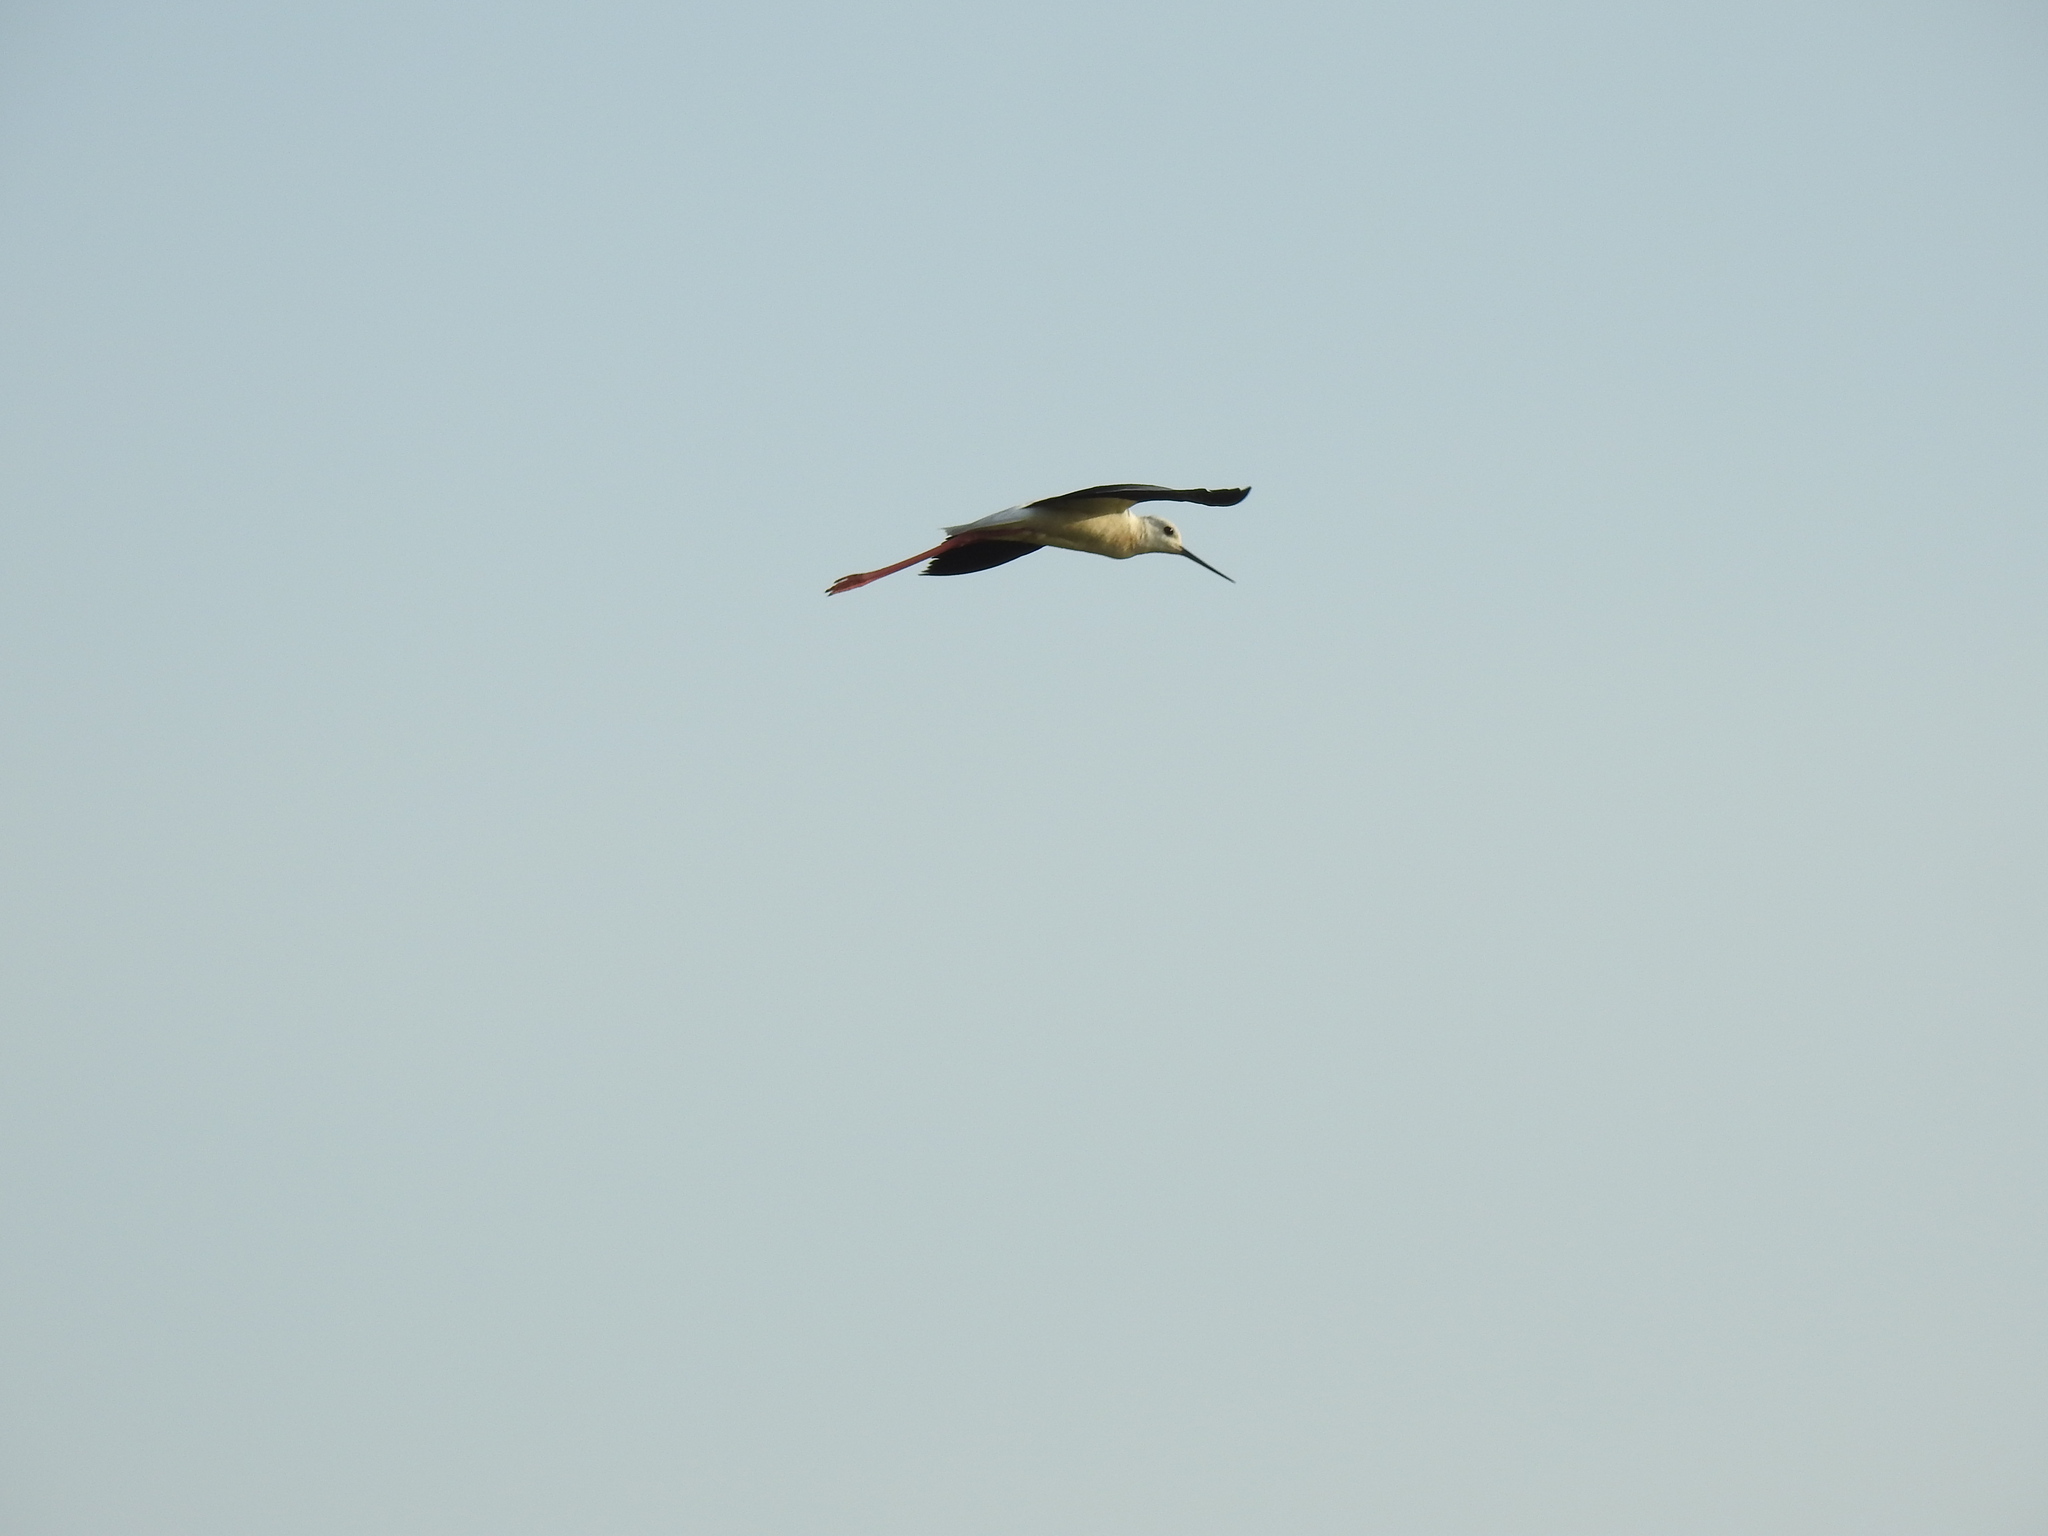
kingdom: Animalia
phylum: Chordata
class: Aves
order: Charadriiformes
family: Recurvirostridae
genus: Himantopus
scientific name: Himantopus himantopus
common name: Black-winged stilt
